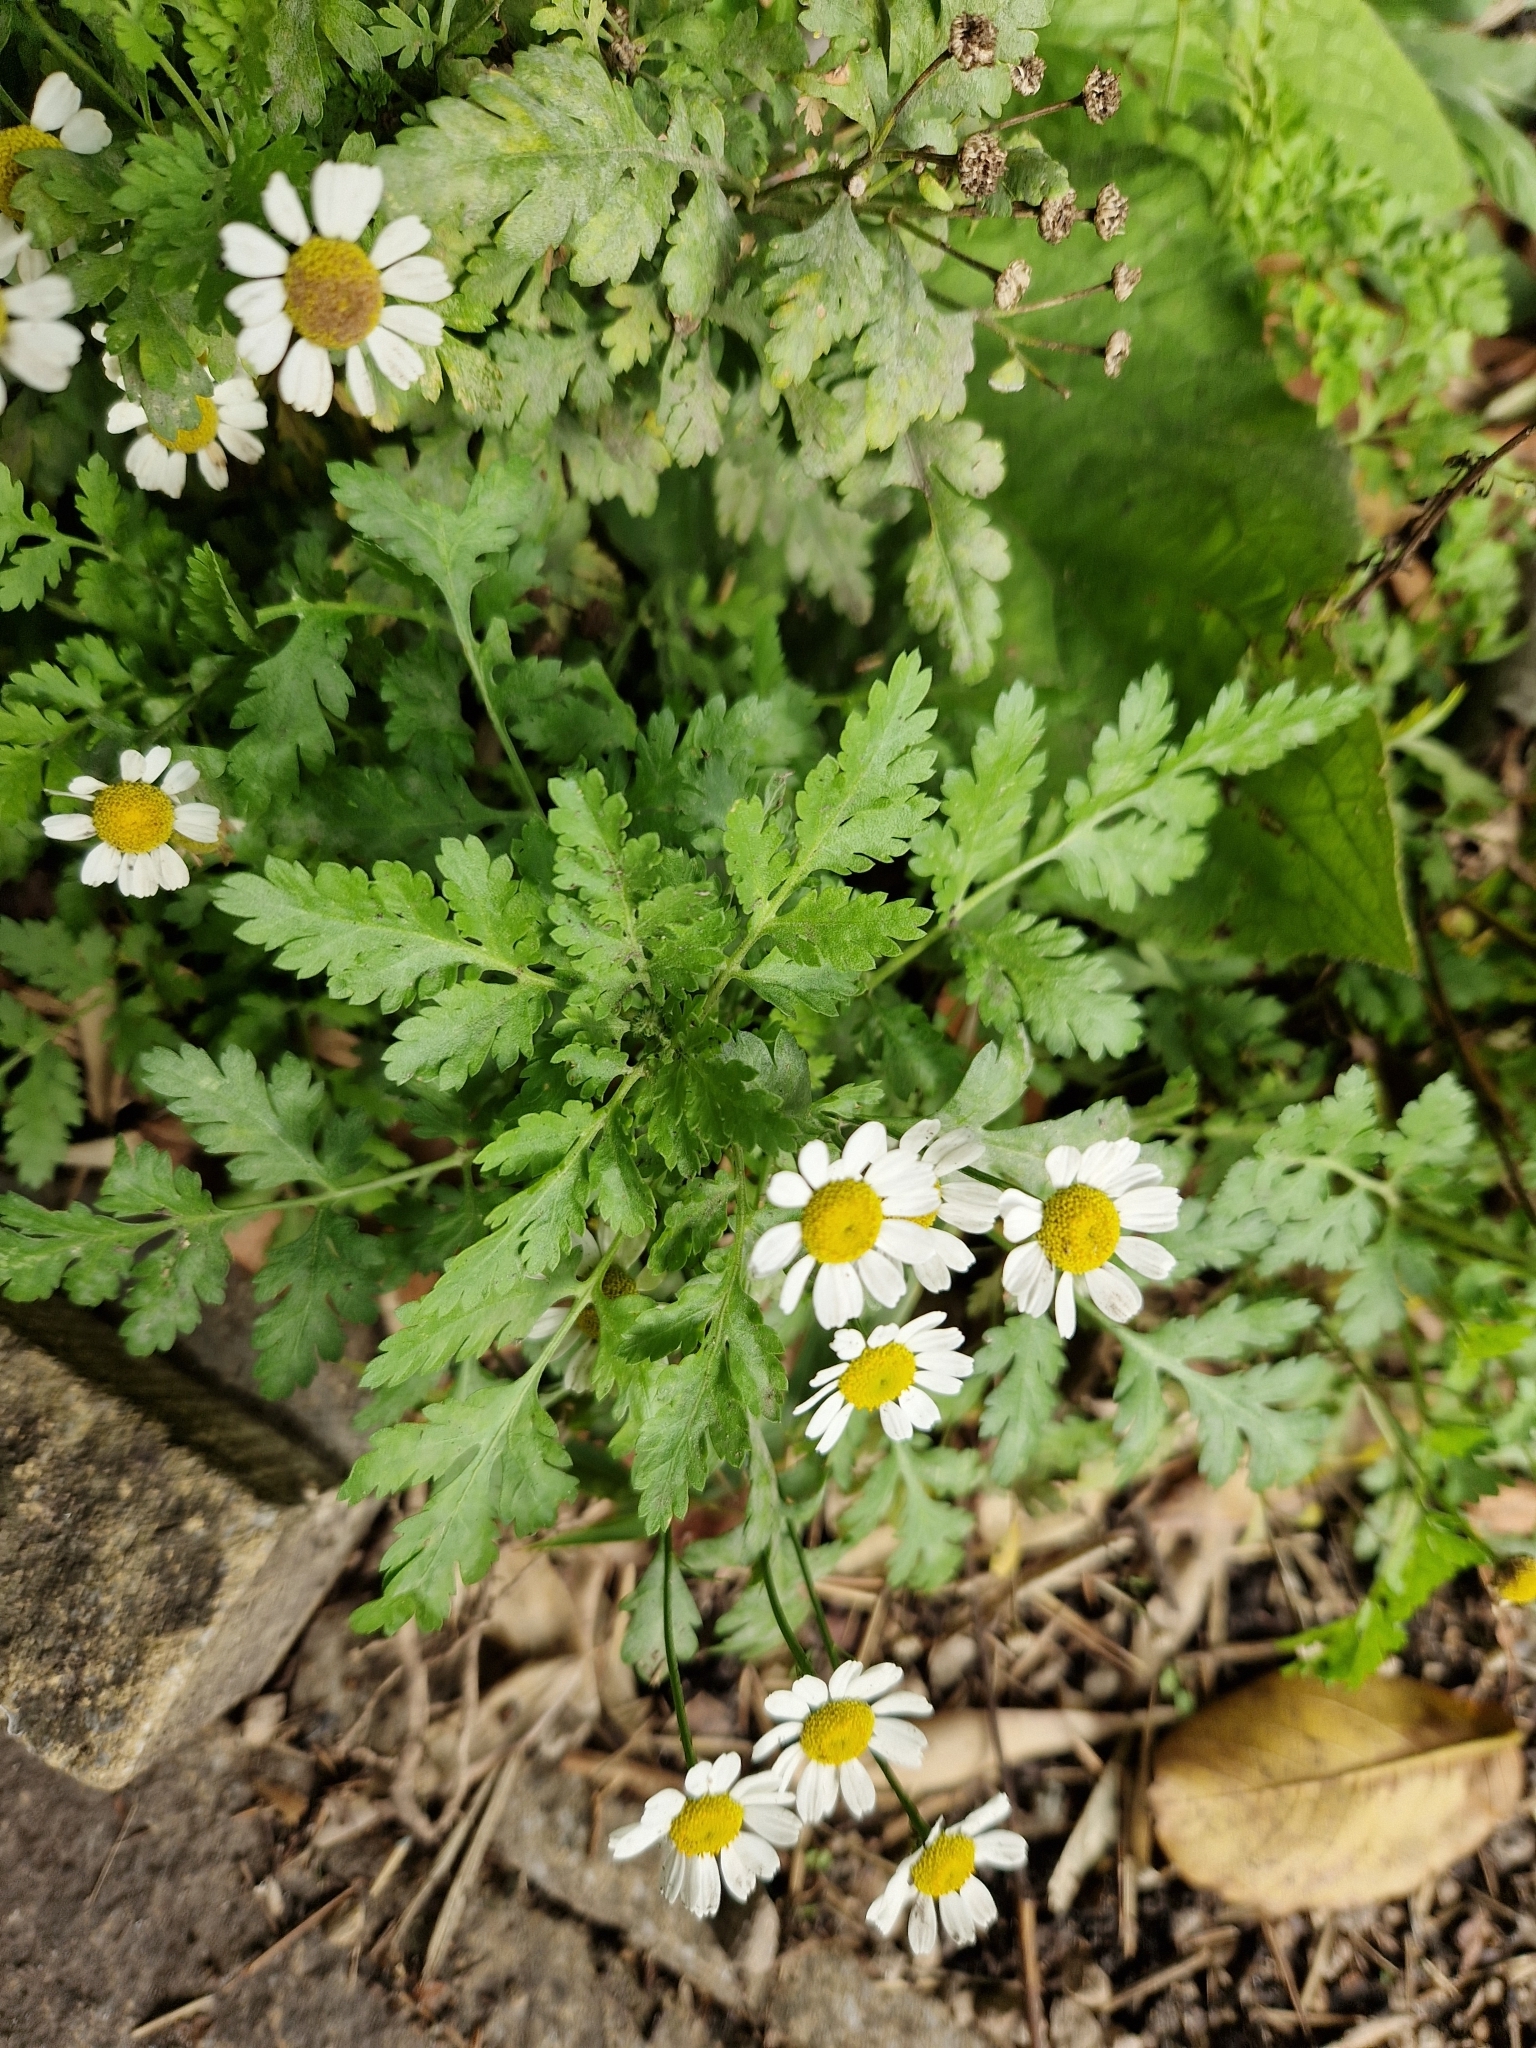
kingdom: Plantae
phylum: Tracheophyta
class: Magnoliopsida
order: Asterales
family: Asteraceae
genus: Tanacetum
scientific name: Tanacetum parthenium
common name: Feverfew
